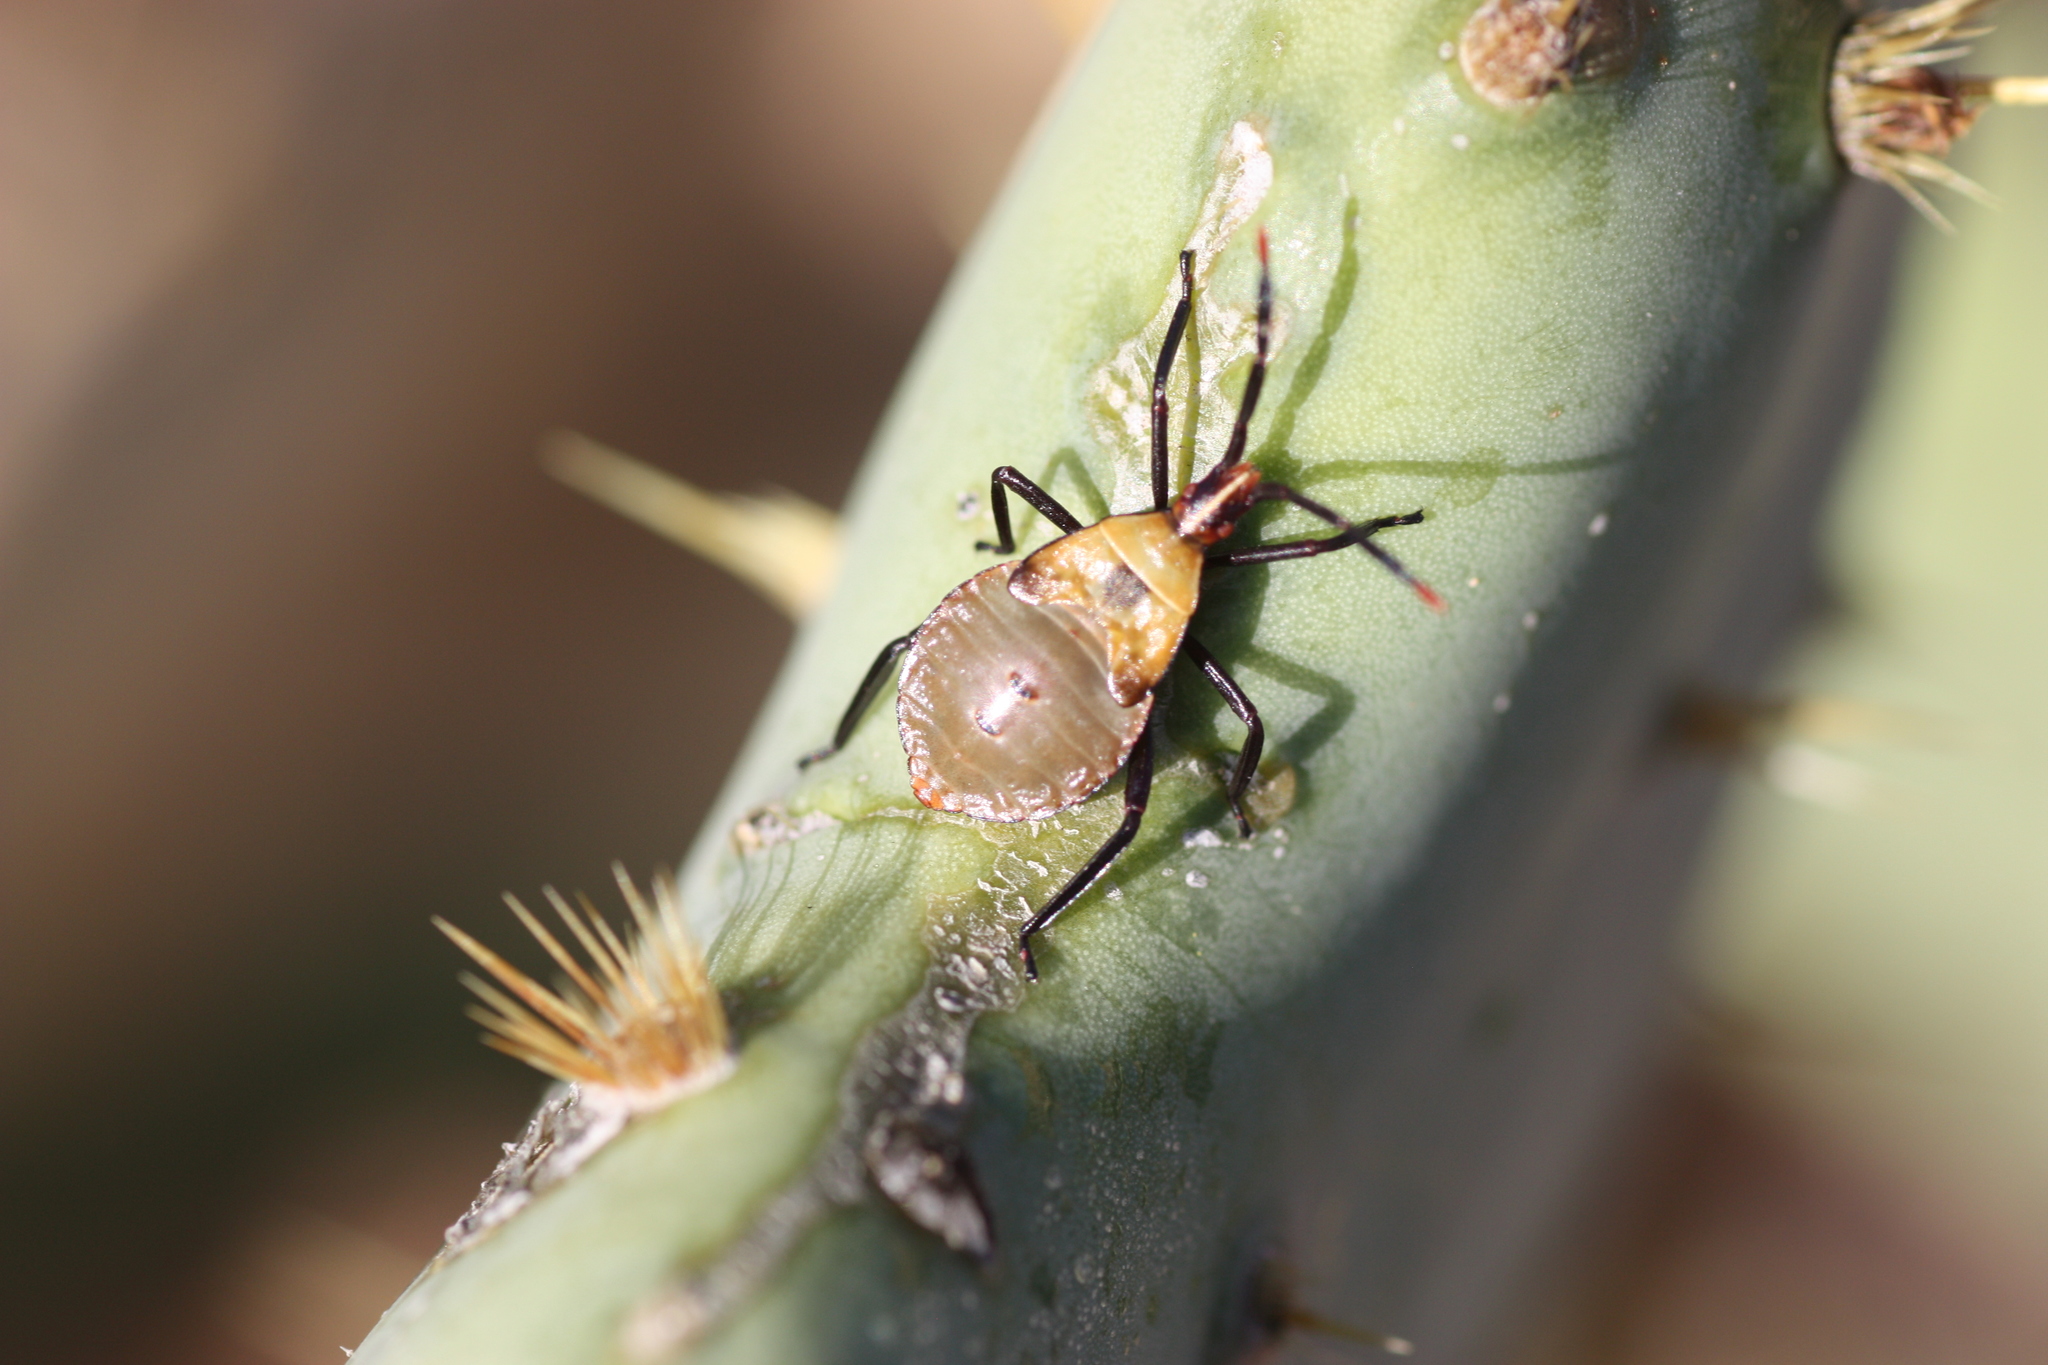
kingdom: Animalia
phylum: Arthropoda
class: Insecta
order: Hemiptera
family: Coreidae
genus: Chelinidea
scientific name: Chelinidea vittiger
